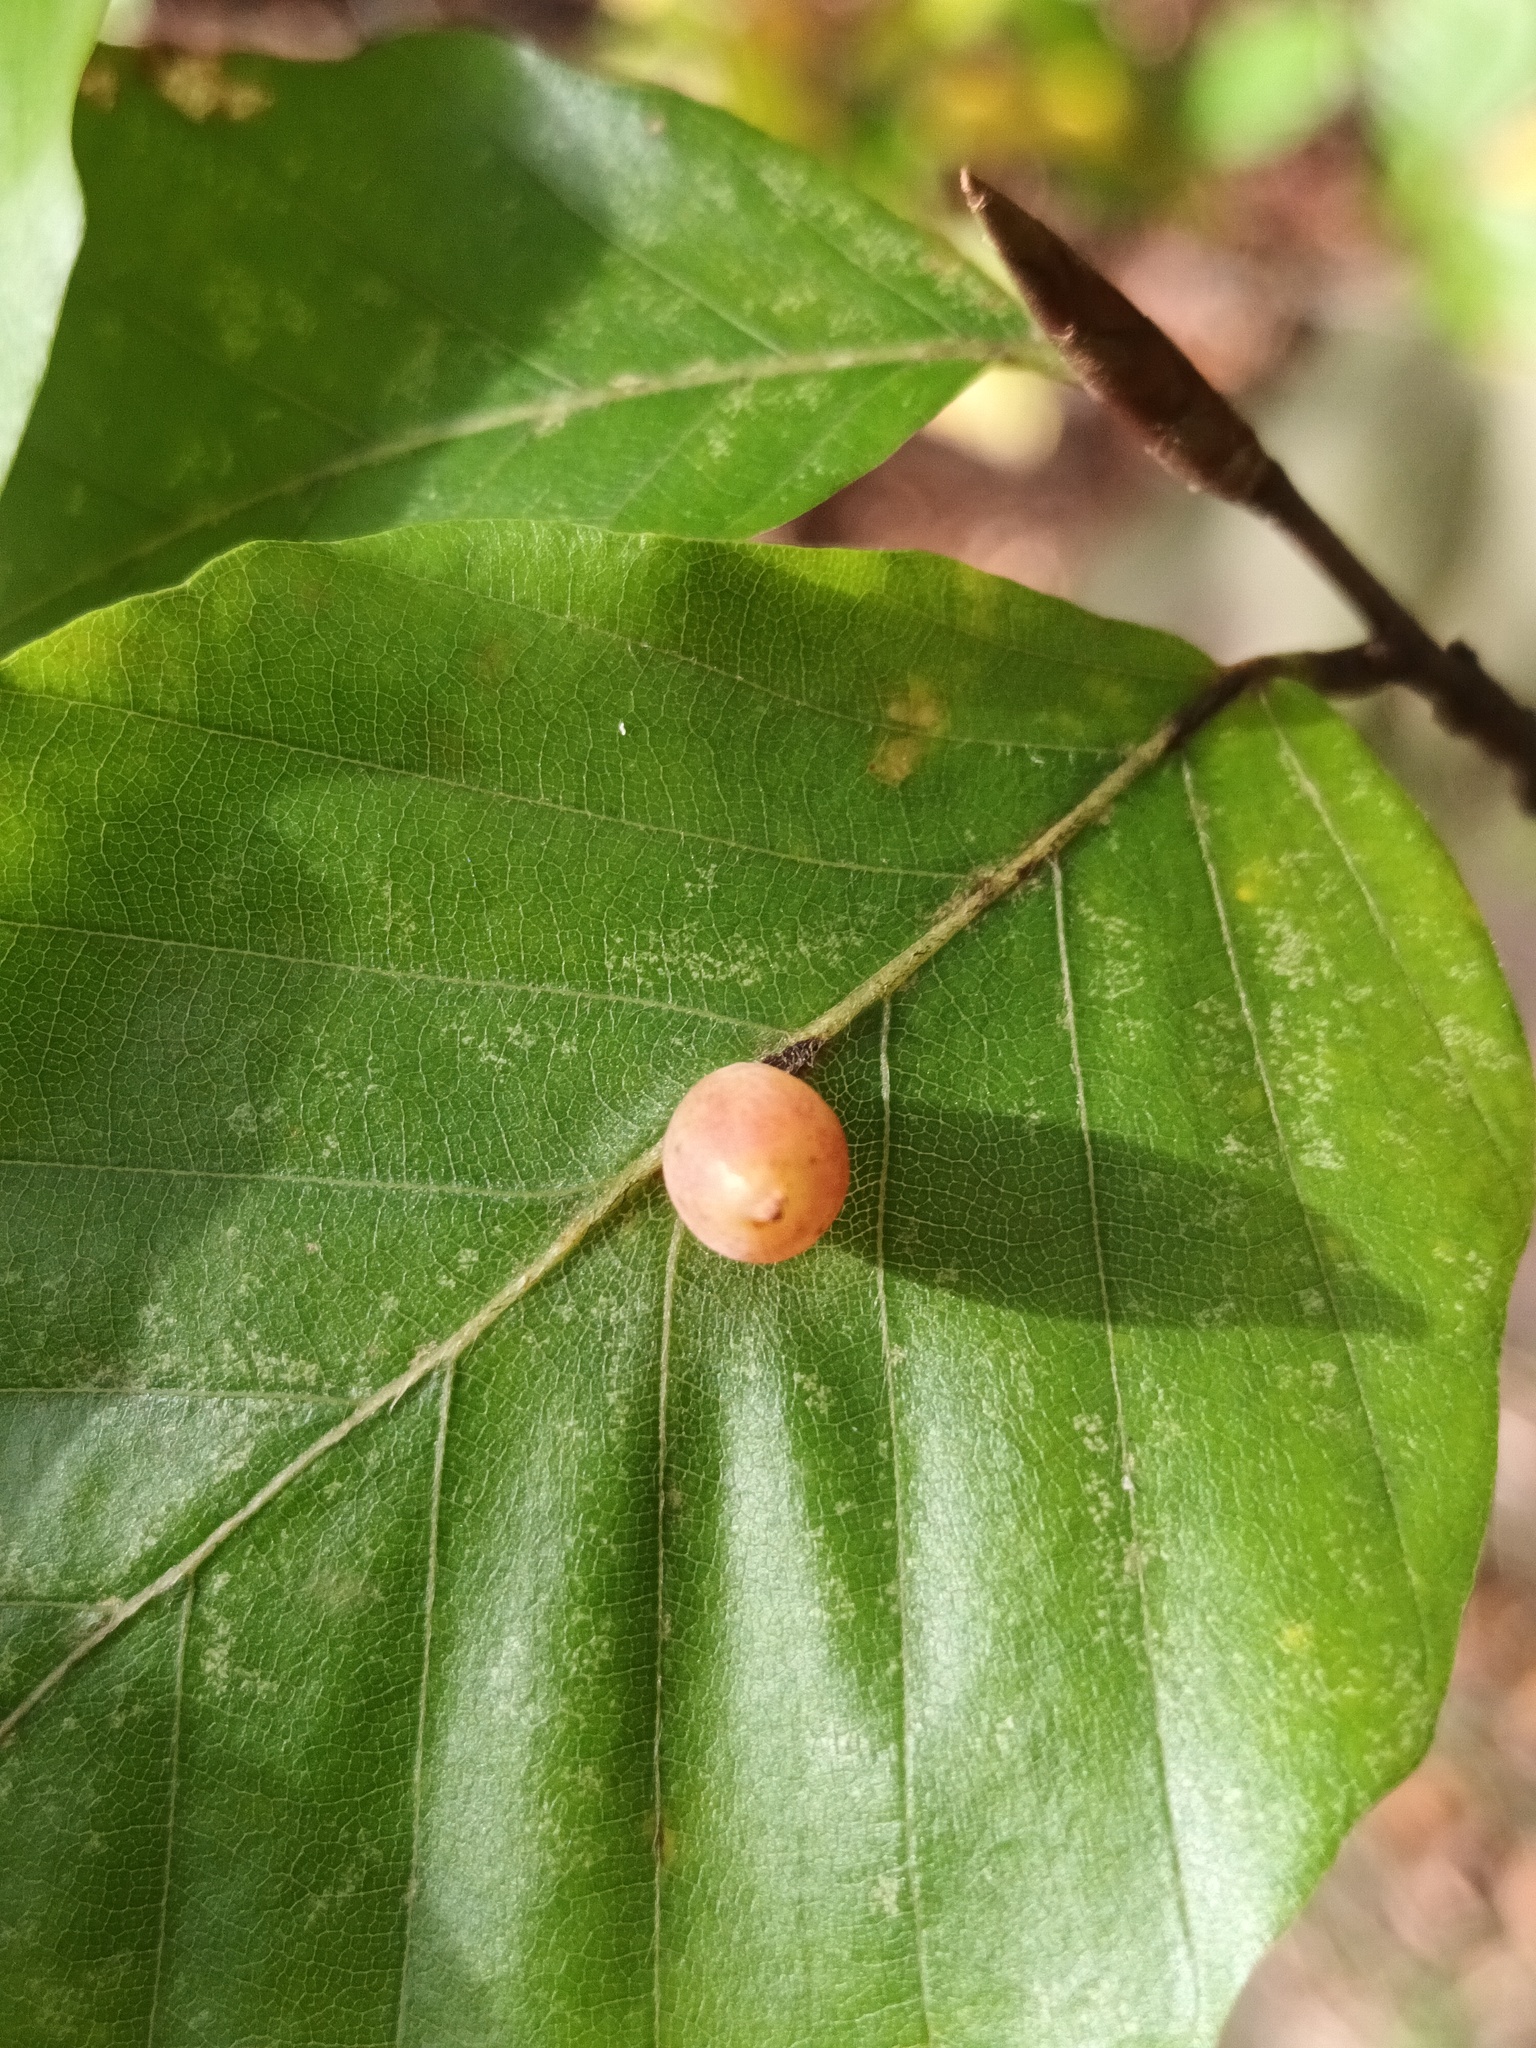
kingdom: Animalia
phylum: Arthropoda
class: Insecta
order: Diptera
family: Cecidomyiidae
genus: Mikiola
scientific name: Mikiola fagi
